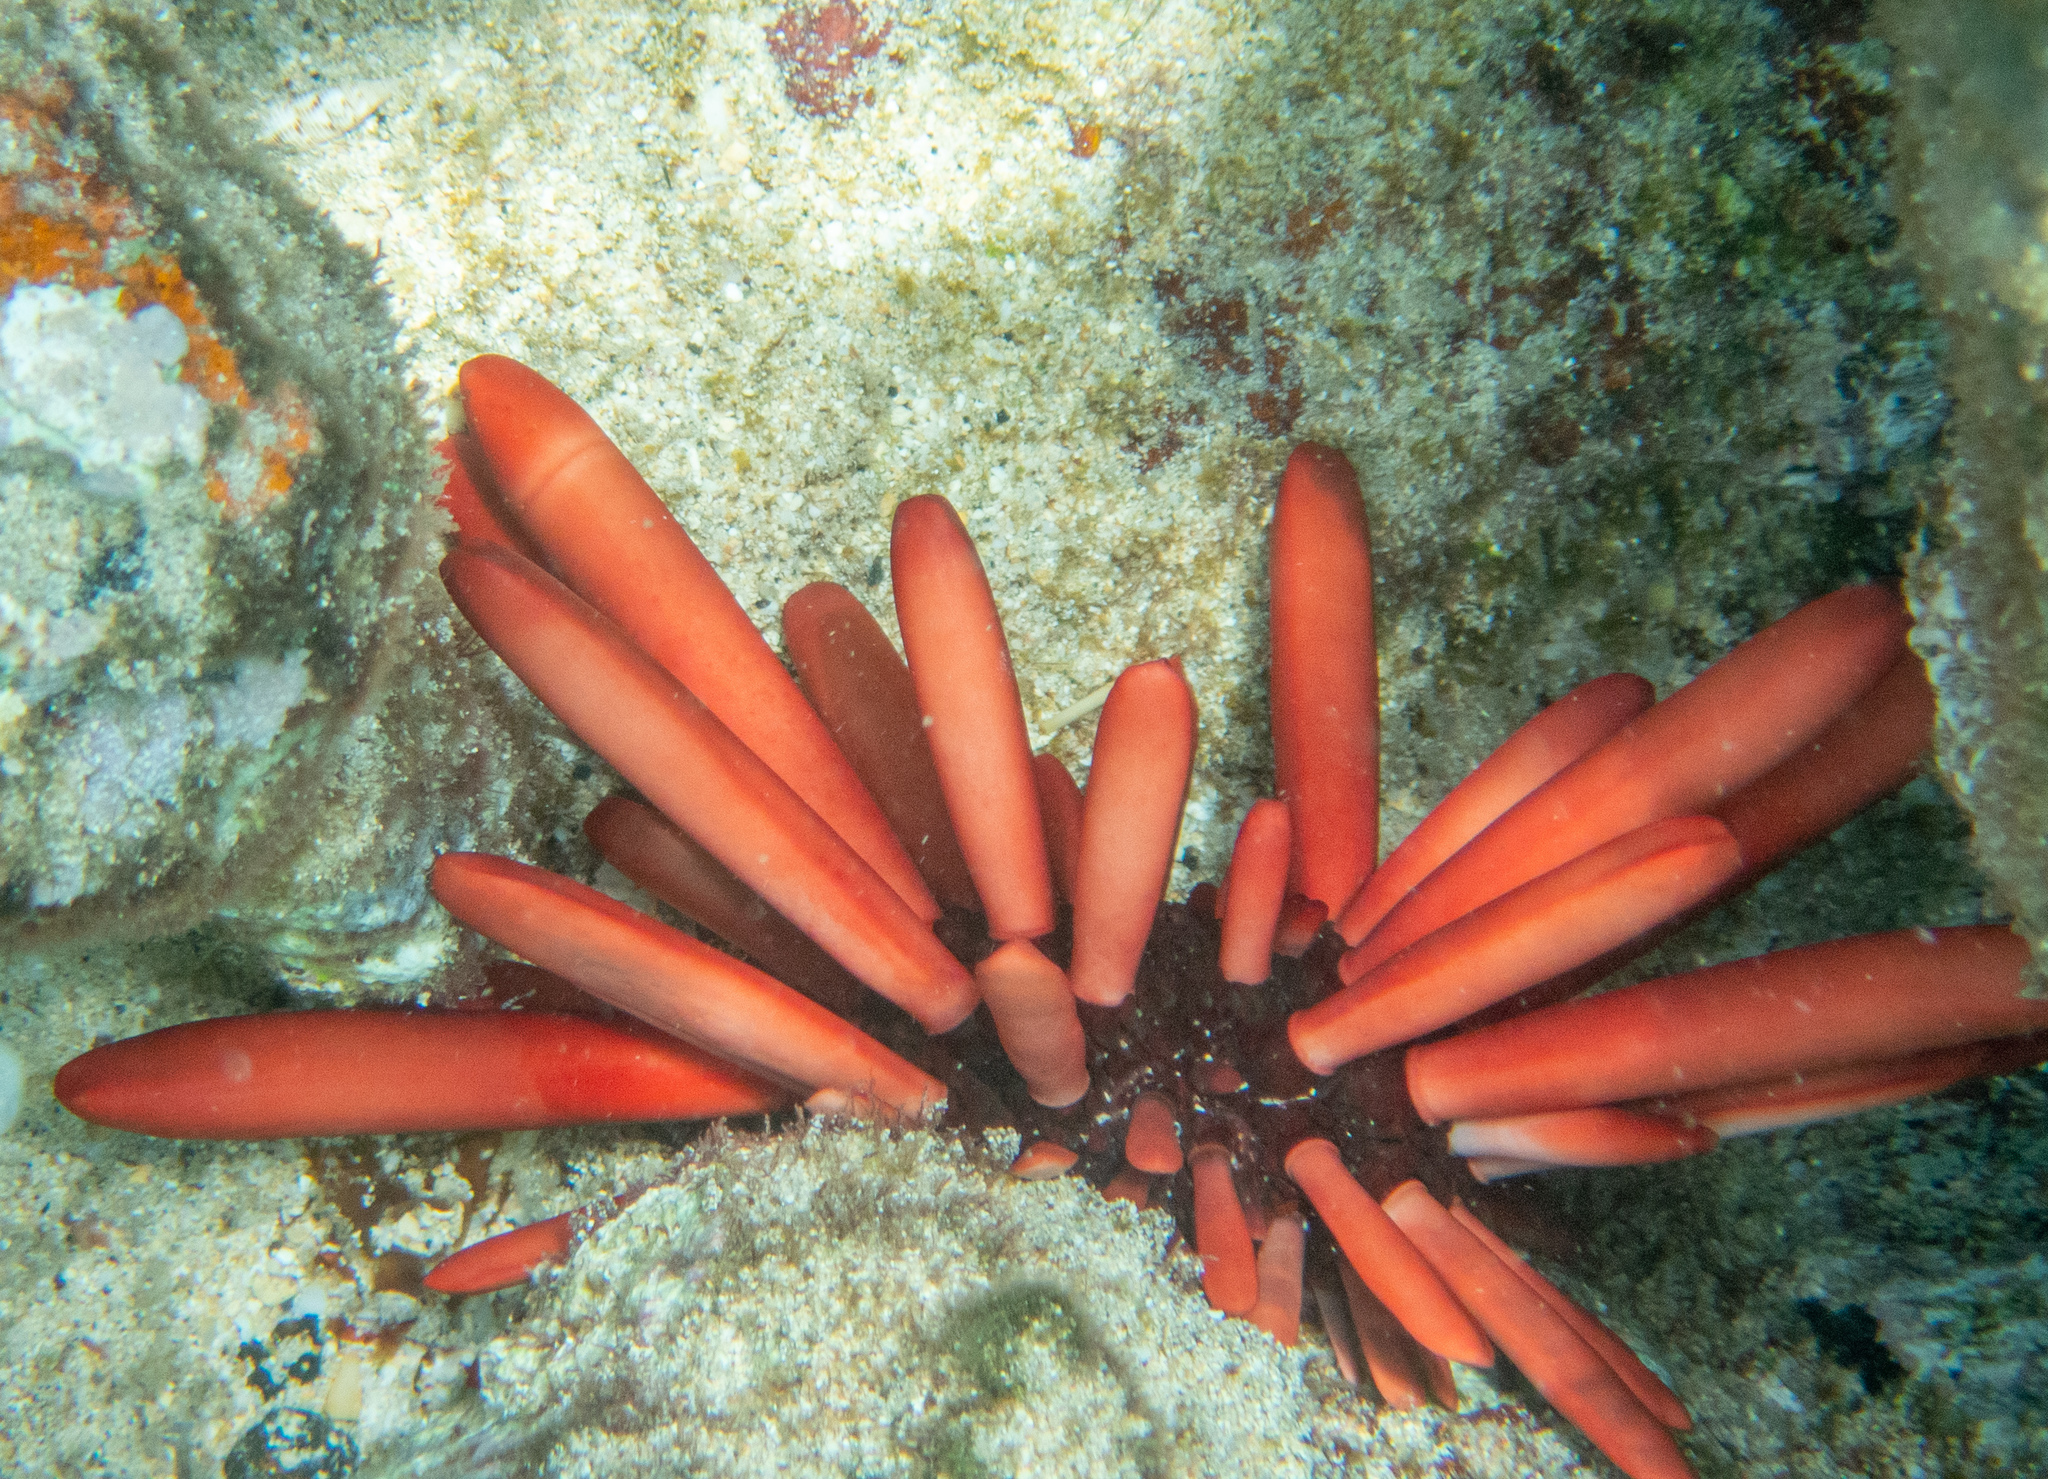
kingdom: Animalia
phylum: Echinodermata
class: Echinoidea
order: Camarodonta
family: Echinometridae
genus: Heterocentrotus
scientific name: Heterocentrotus mamillatus
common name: Slate pencil urchin
